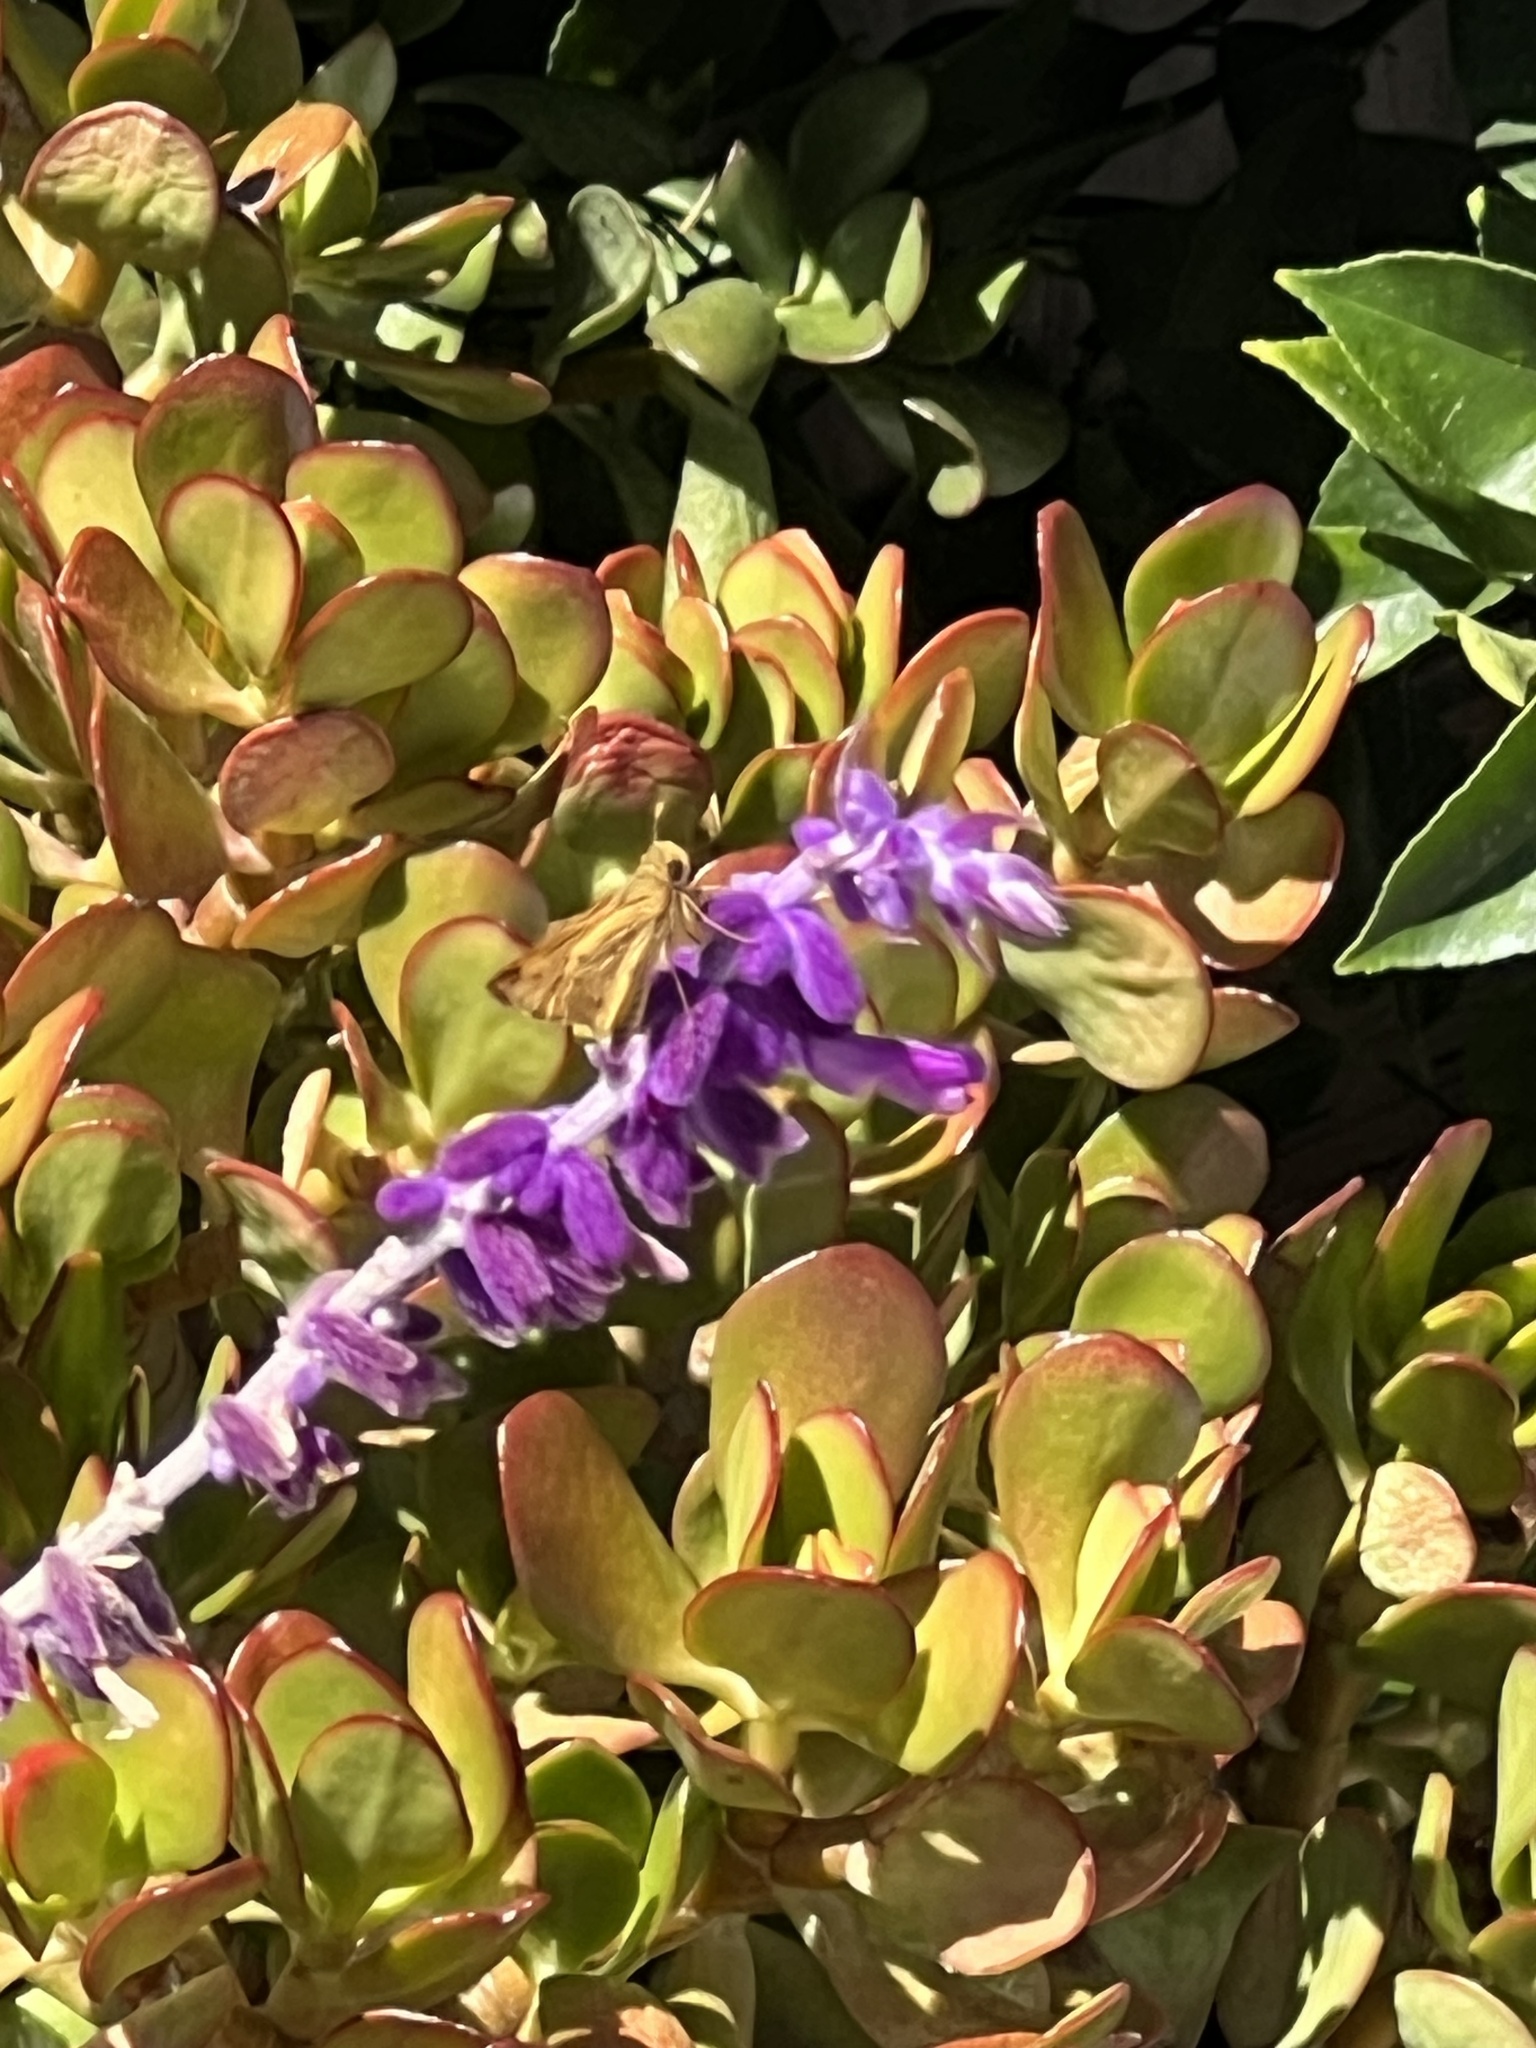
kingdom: Animalia
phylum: Arthropoda
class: Insecta
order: Lepidoptera
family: Hesperiidae
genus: Hylephila
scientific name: Hylephila phyleus
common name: Fiery skipper
